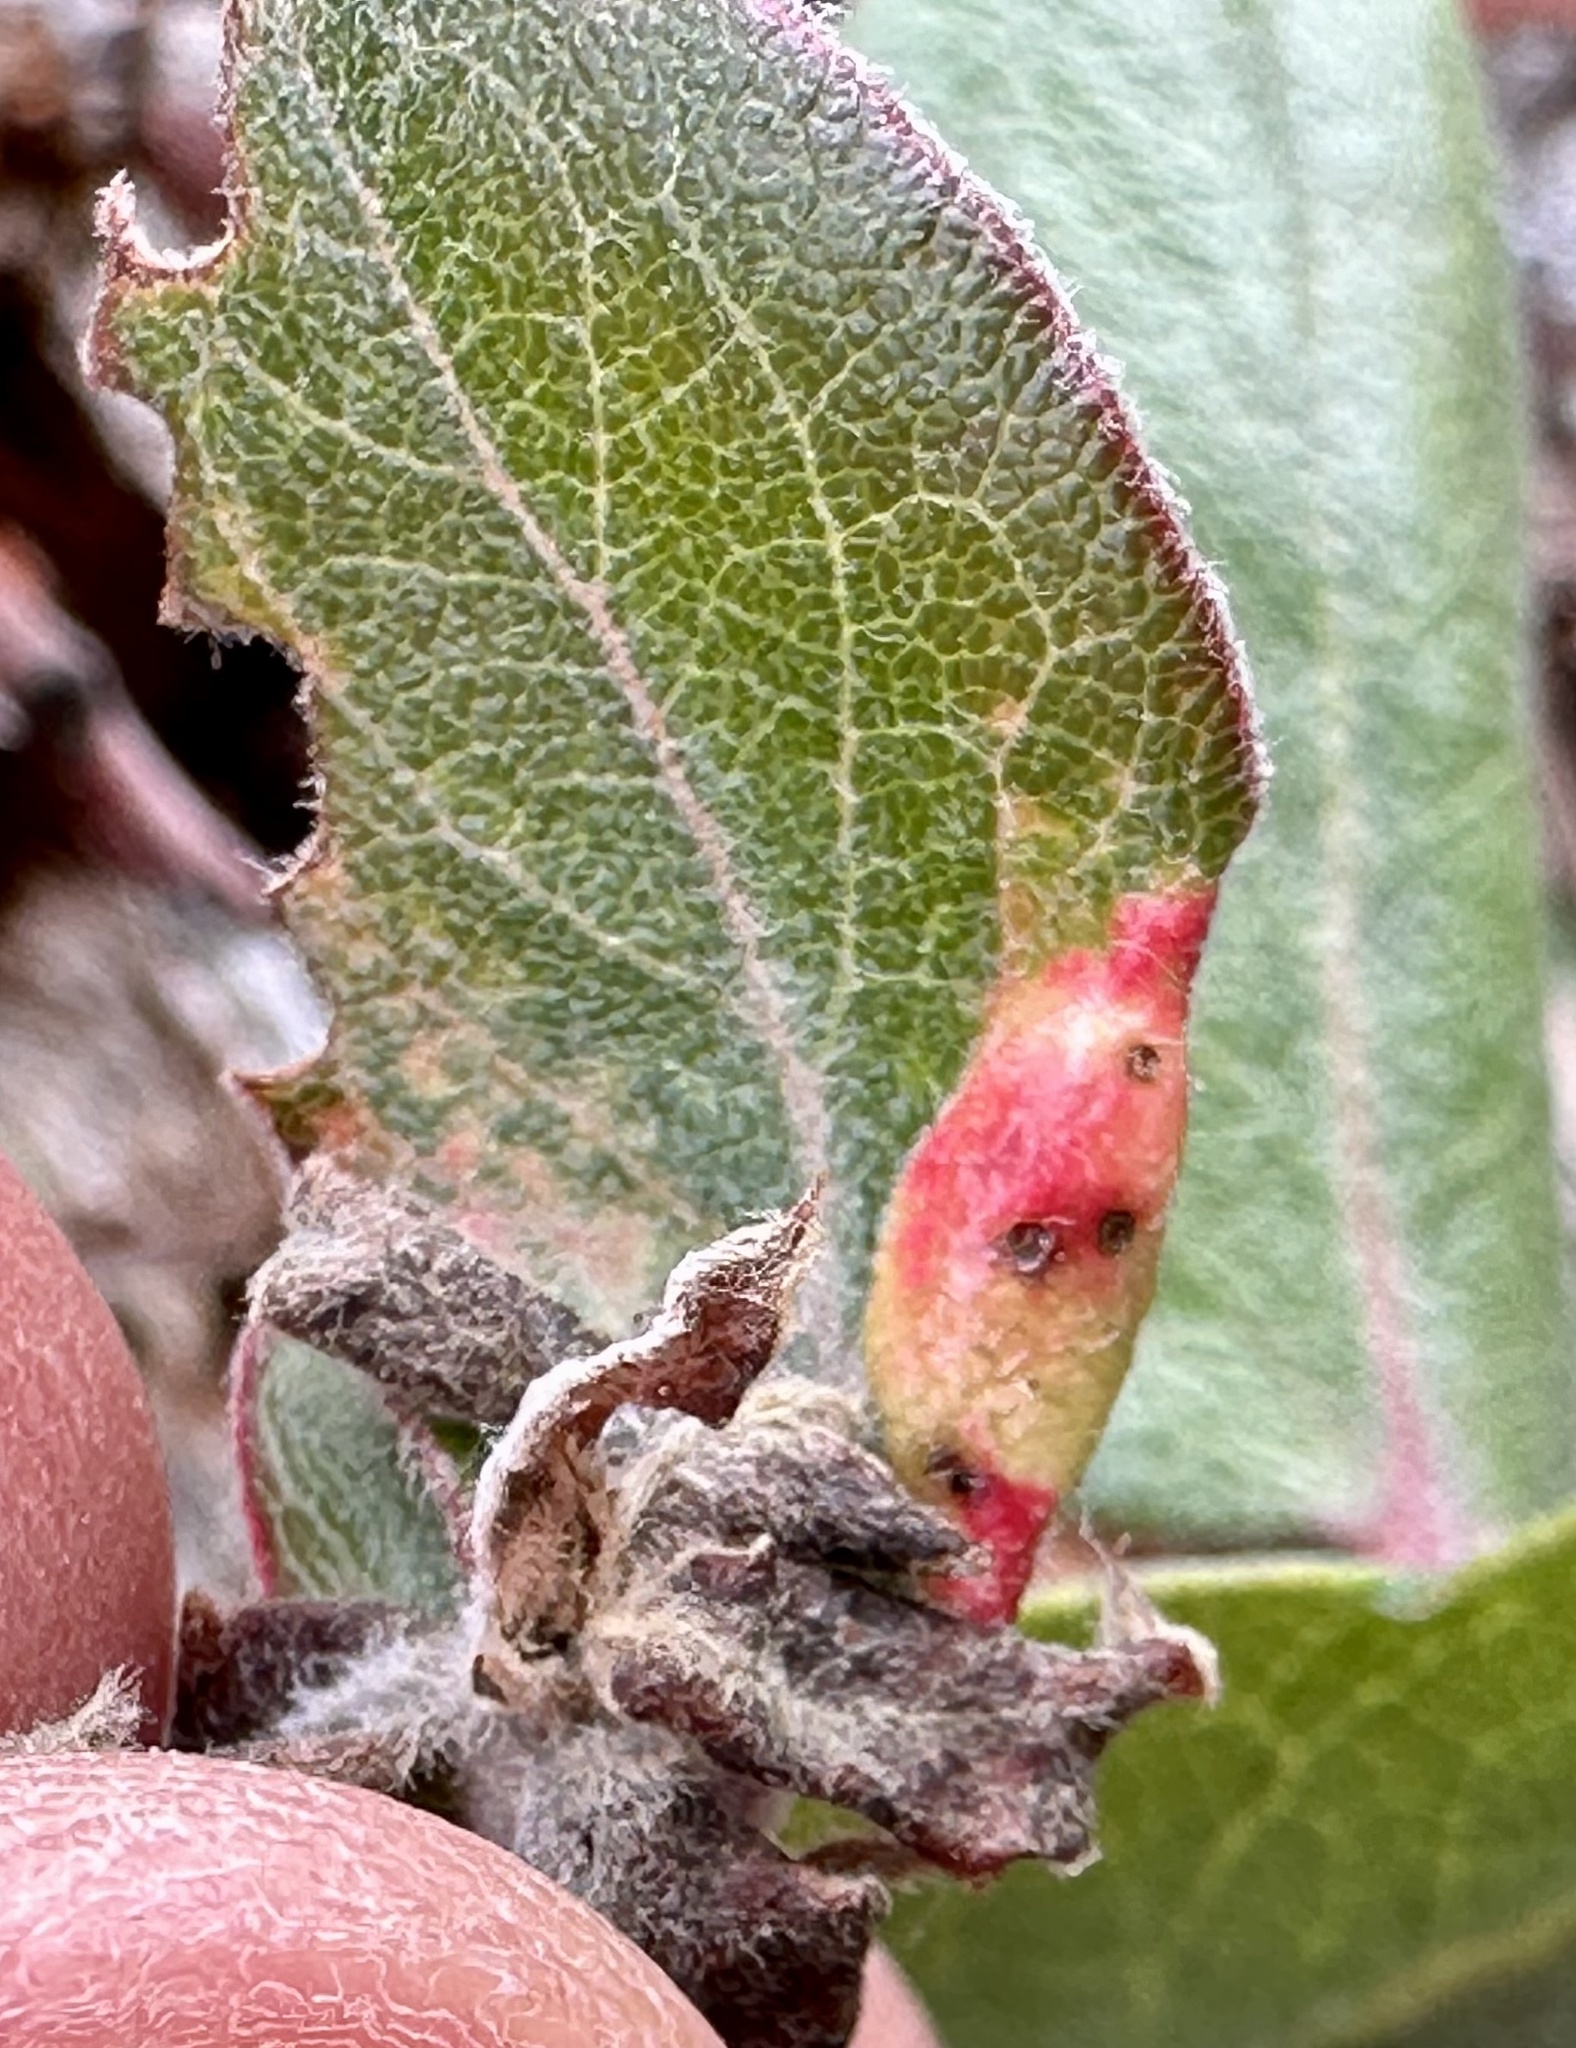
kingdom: Animalia
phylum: Arthropoda
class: Insecta
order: Hemiptera
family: Aphididae
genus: Tamalia
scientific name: Tamalia coweni
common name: Manzanita leafgall aphid
